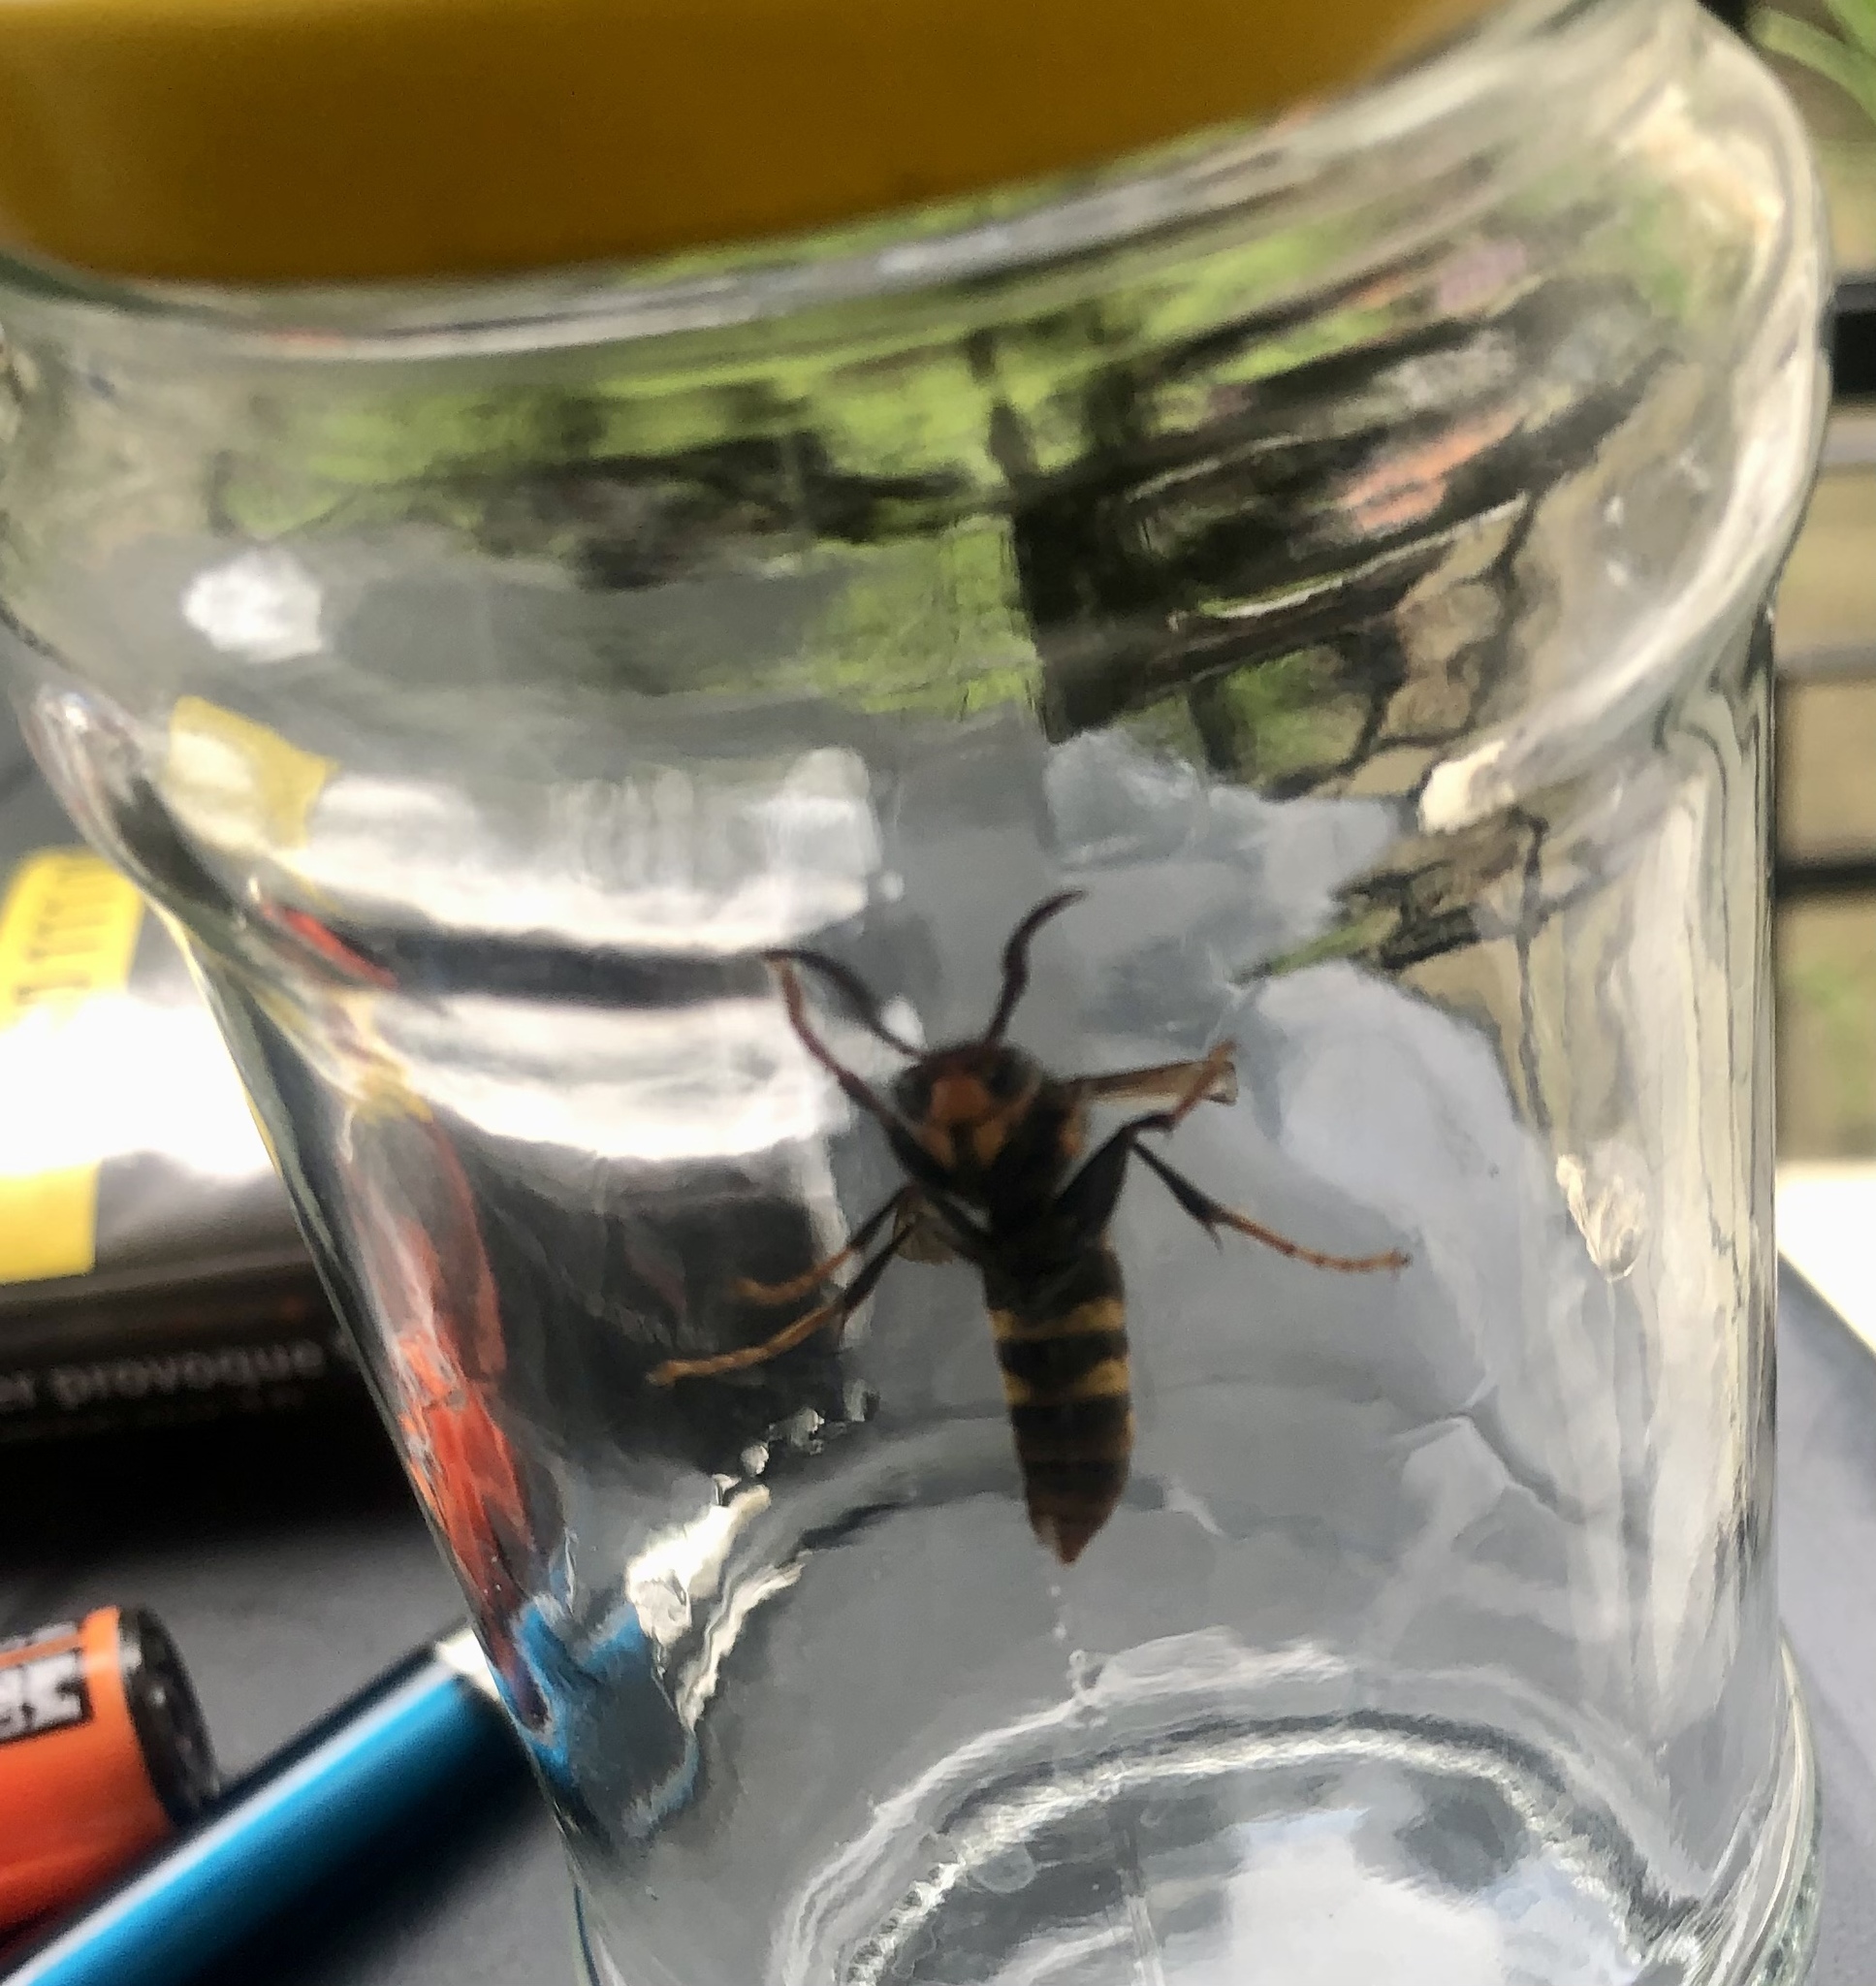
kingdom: Animalia
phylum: Arthropoda
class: Insecta
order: Hymenoptera
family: Vespidae
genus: Vespa
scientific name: Vespa velutina
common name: Asian hornet
